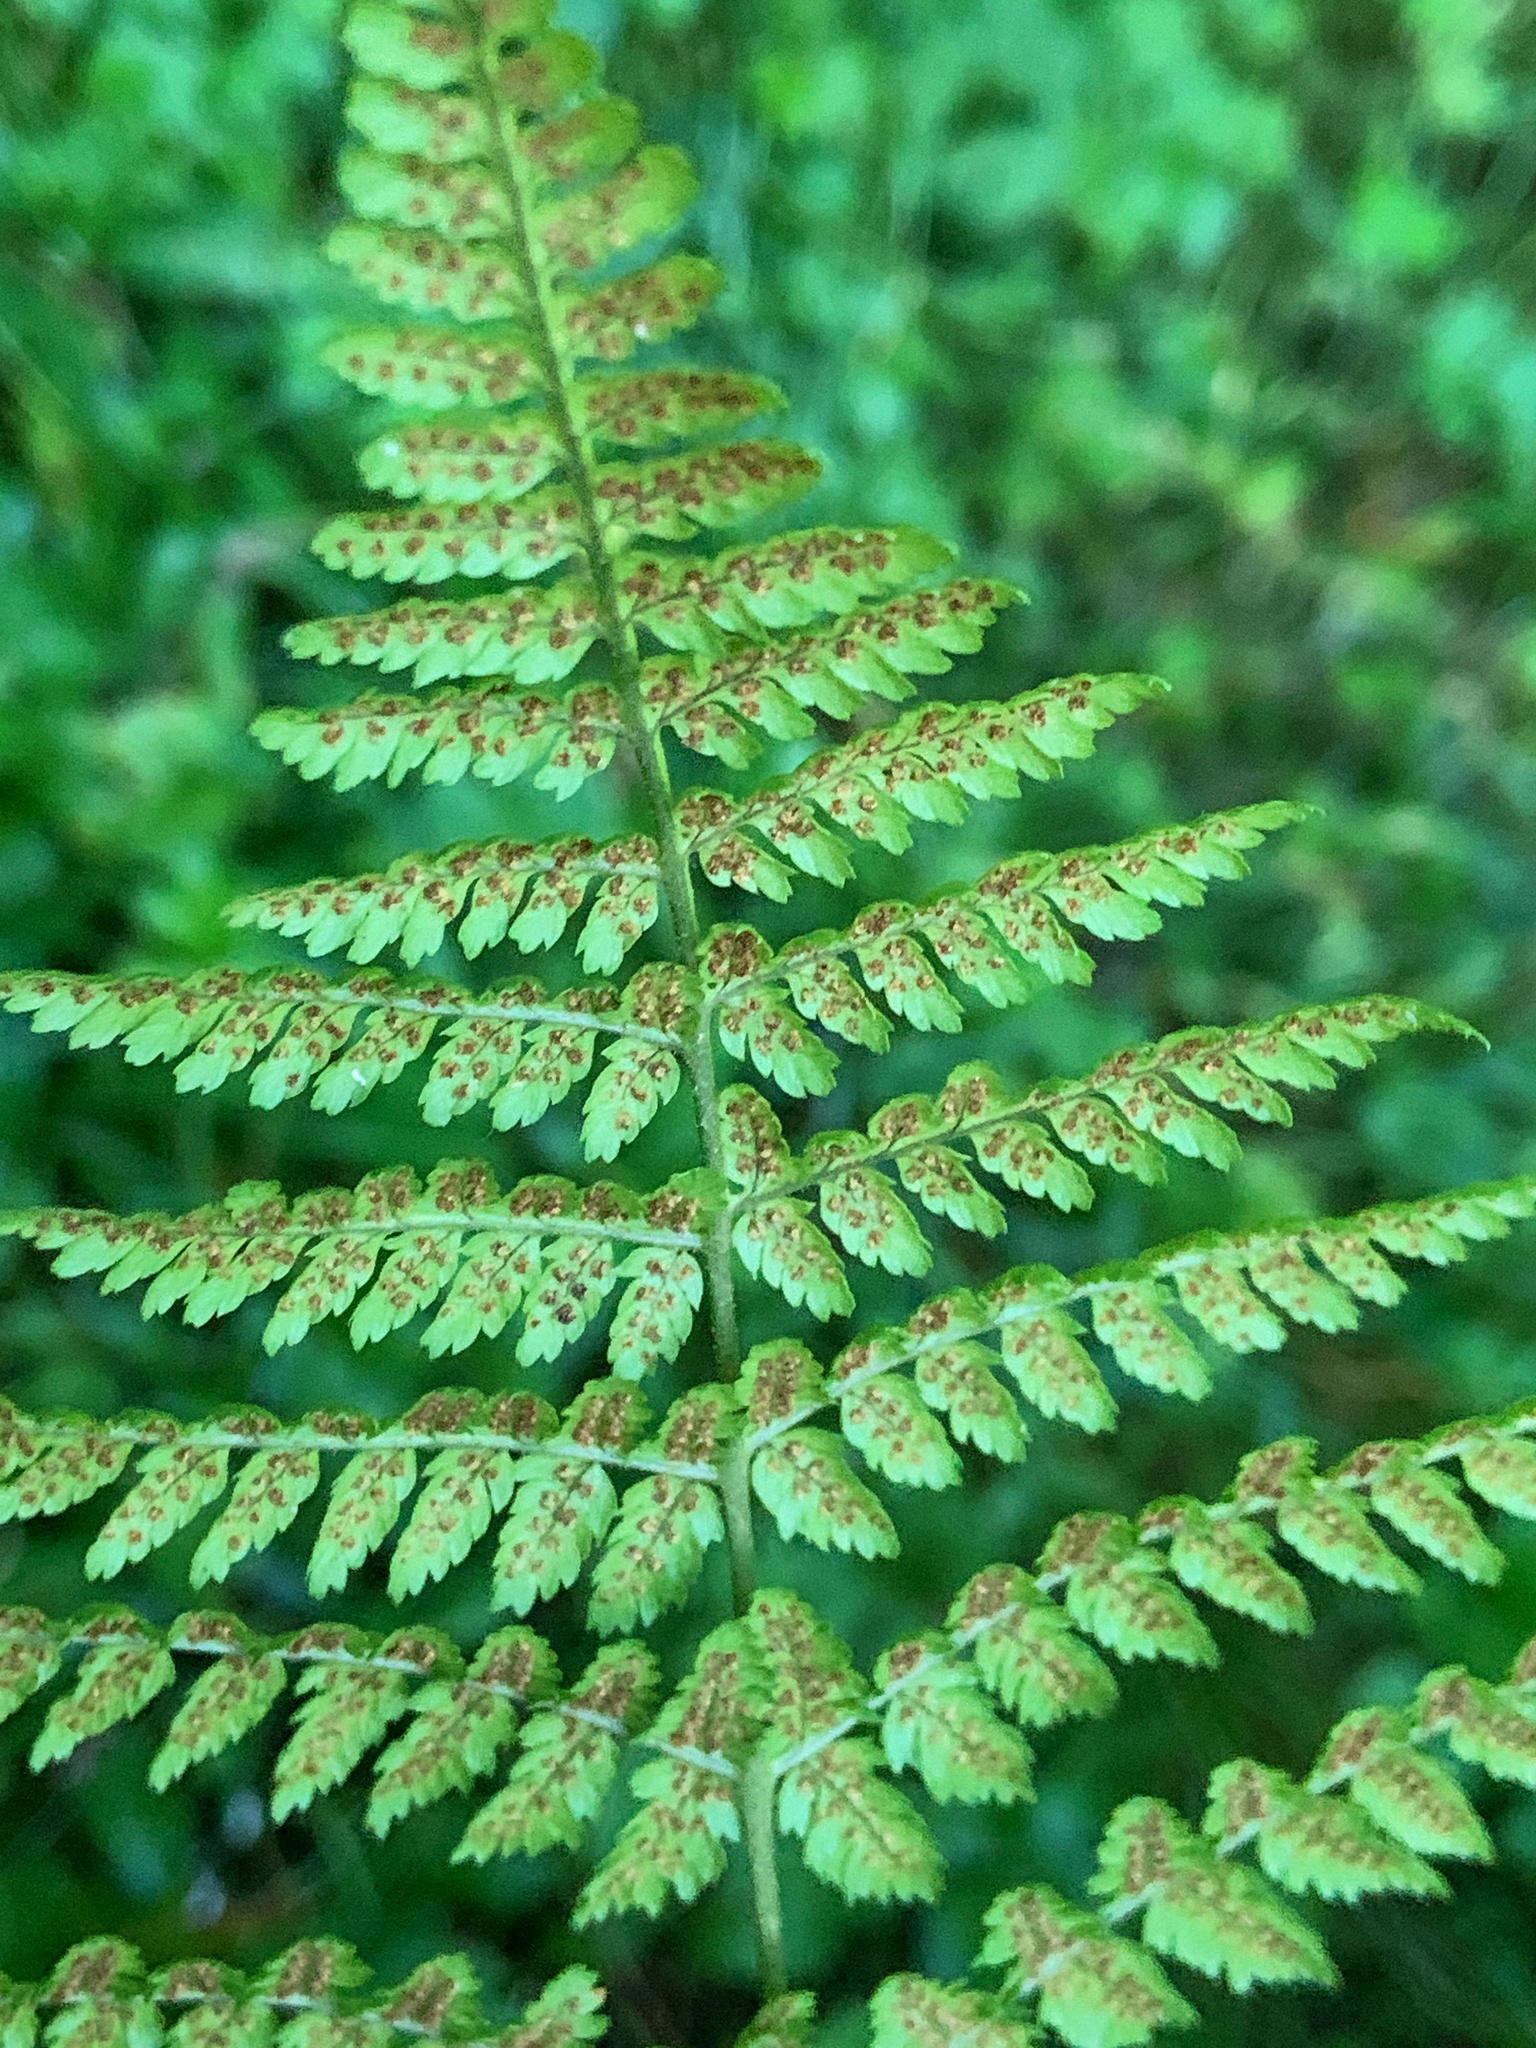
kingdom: Plantae
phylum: Tracheophyta
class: Polypodiopsida
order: Polypodiales
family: Dryopteridaceae
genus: Dryopteris
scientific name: Dryopteris intermedia
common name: Evergreen wood fern
